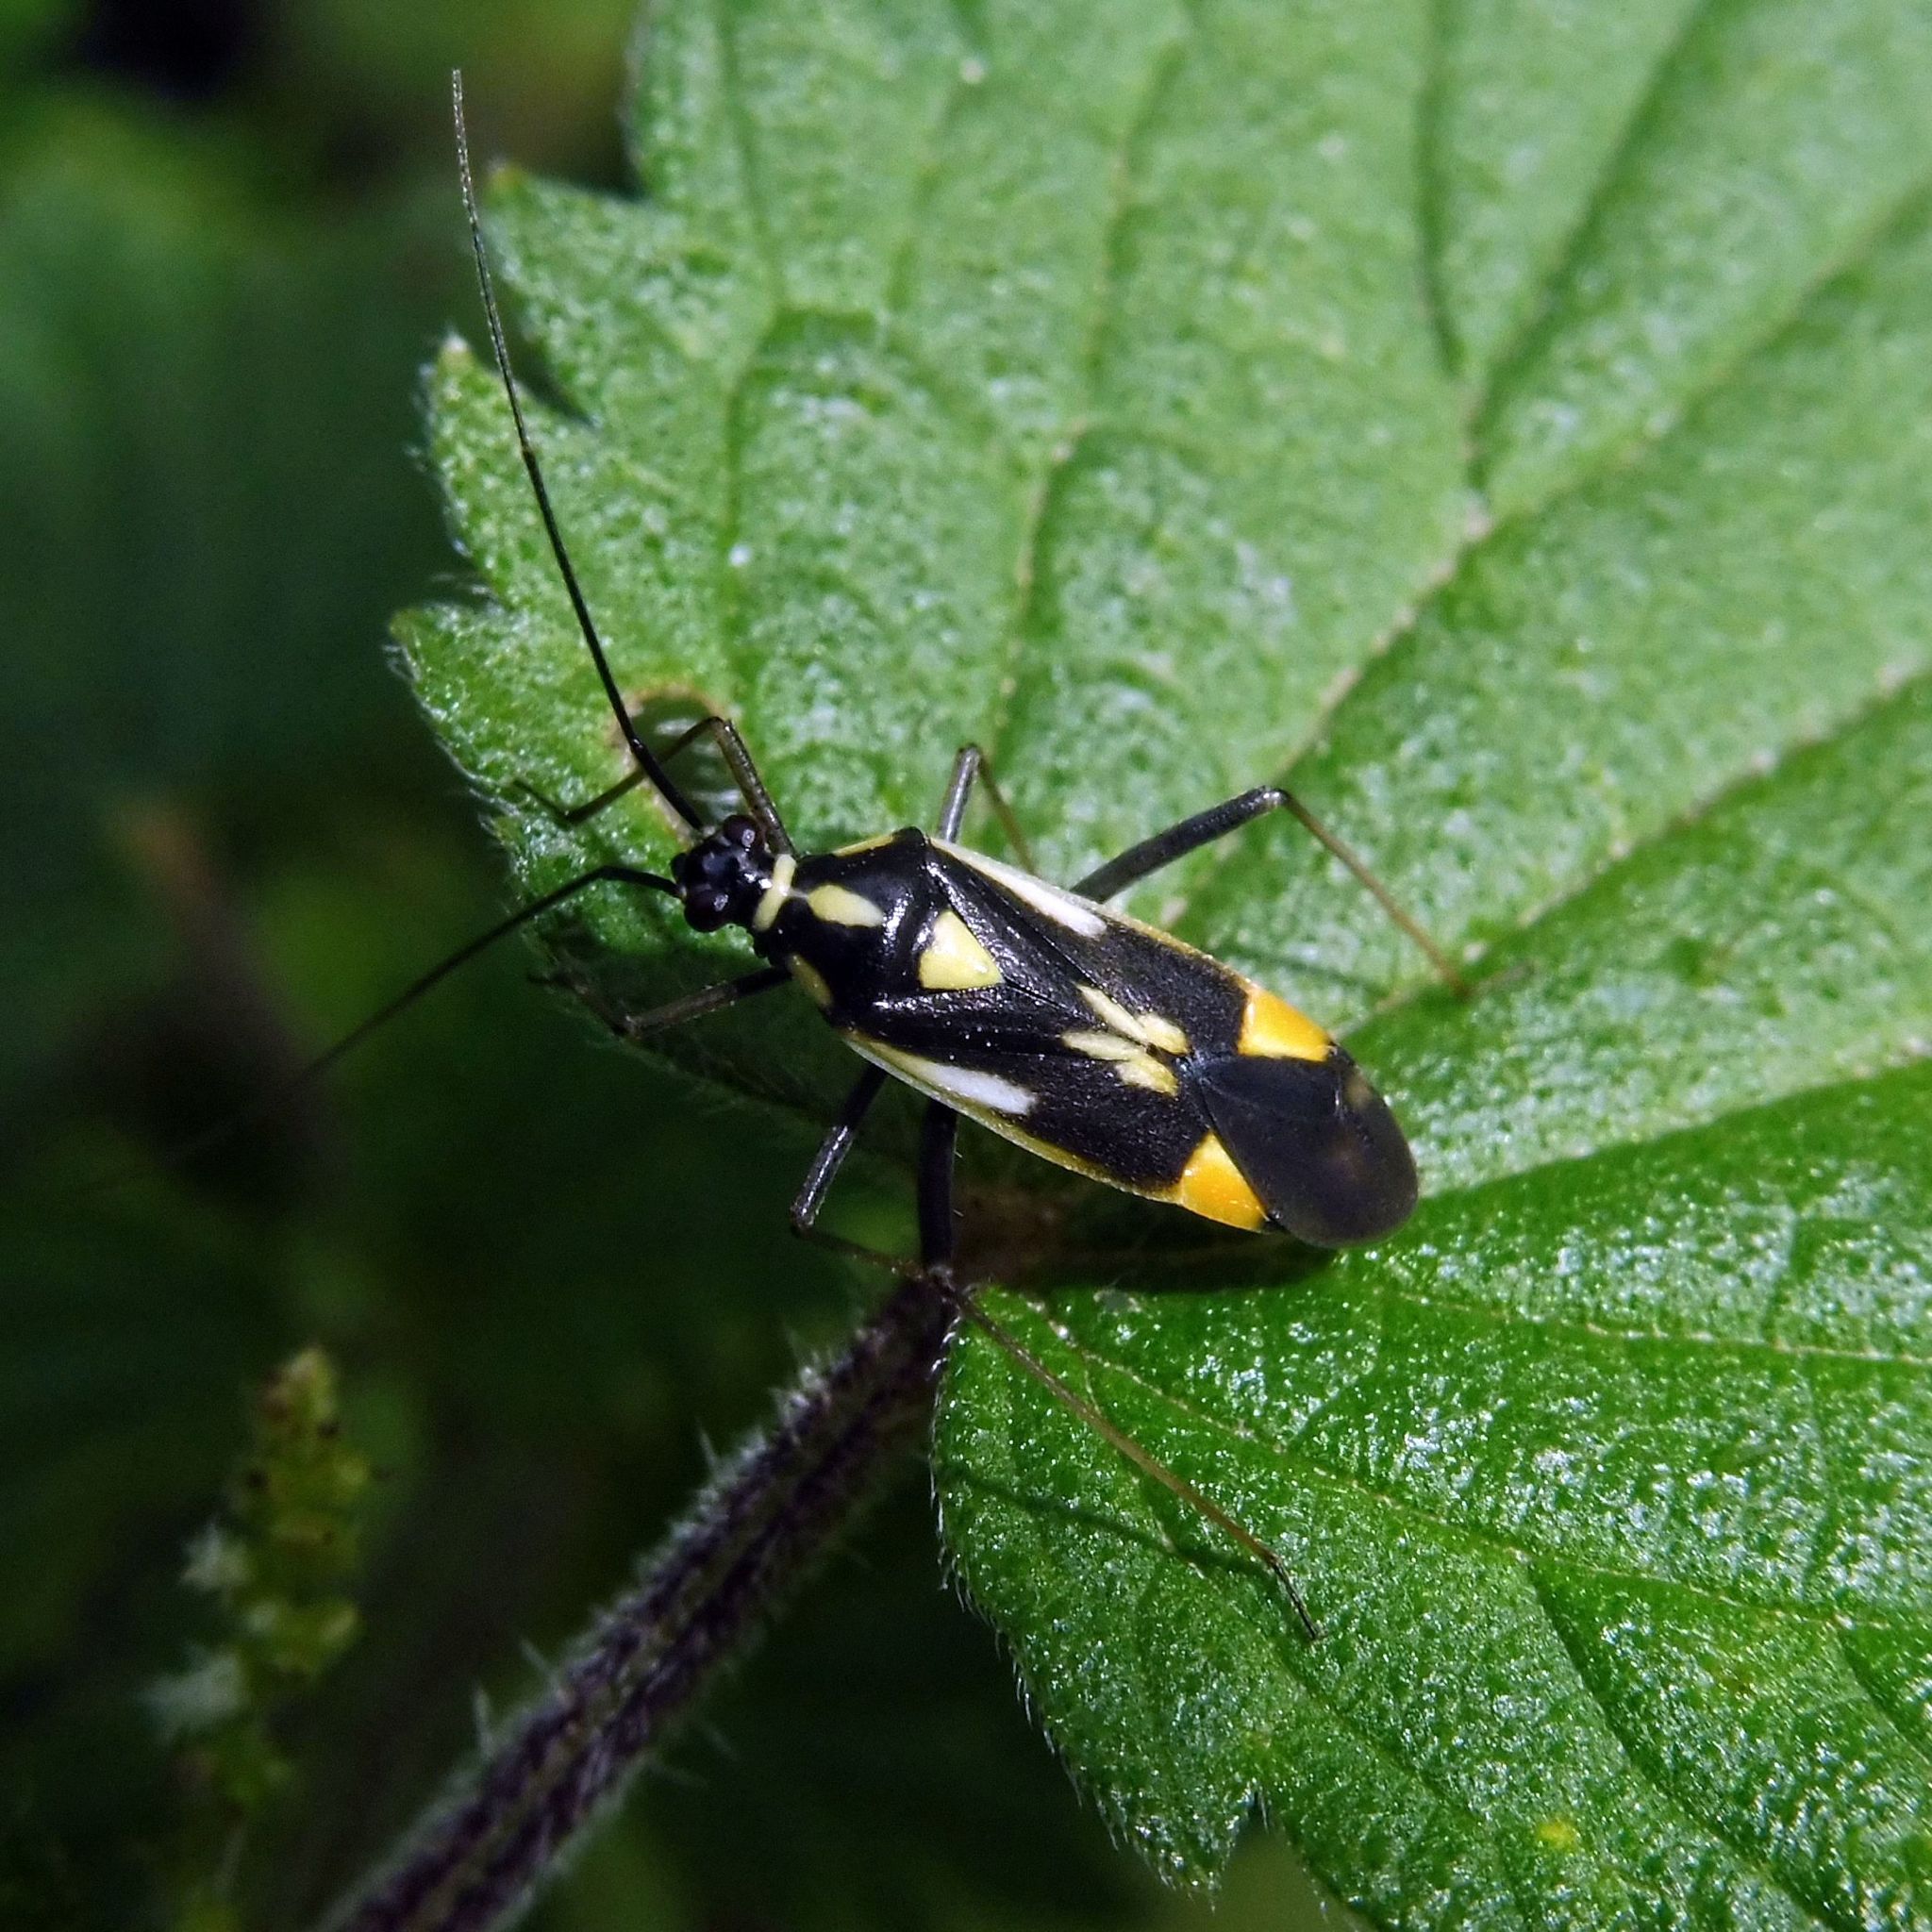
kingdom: Animalia
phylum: Arthropoda
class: Insecta
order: Hemiptera
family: Miridae
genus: Grypocoris
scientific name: Grypocoris stysi
